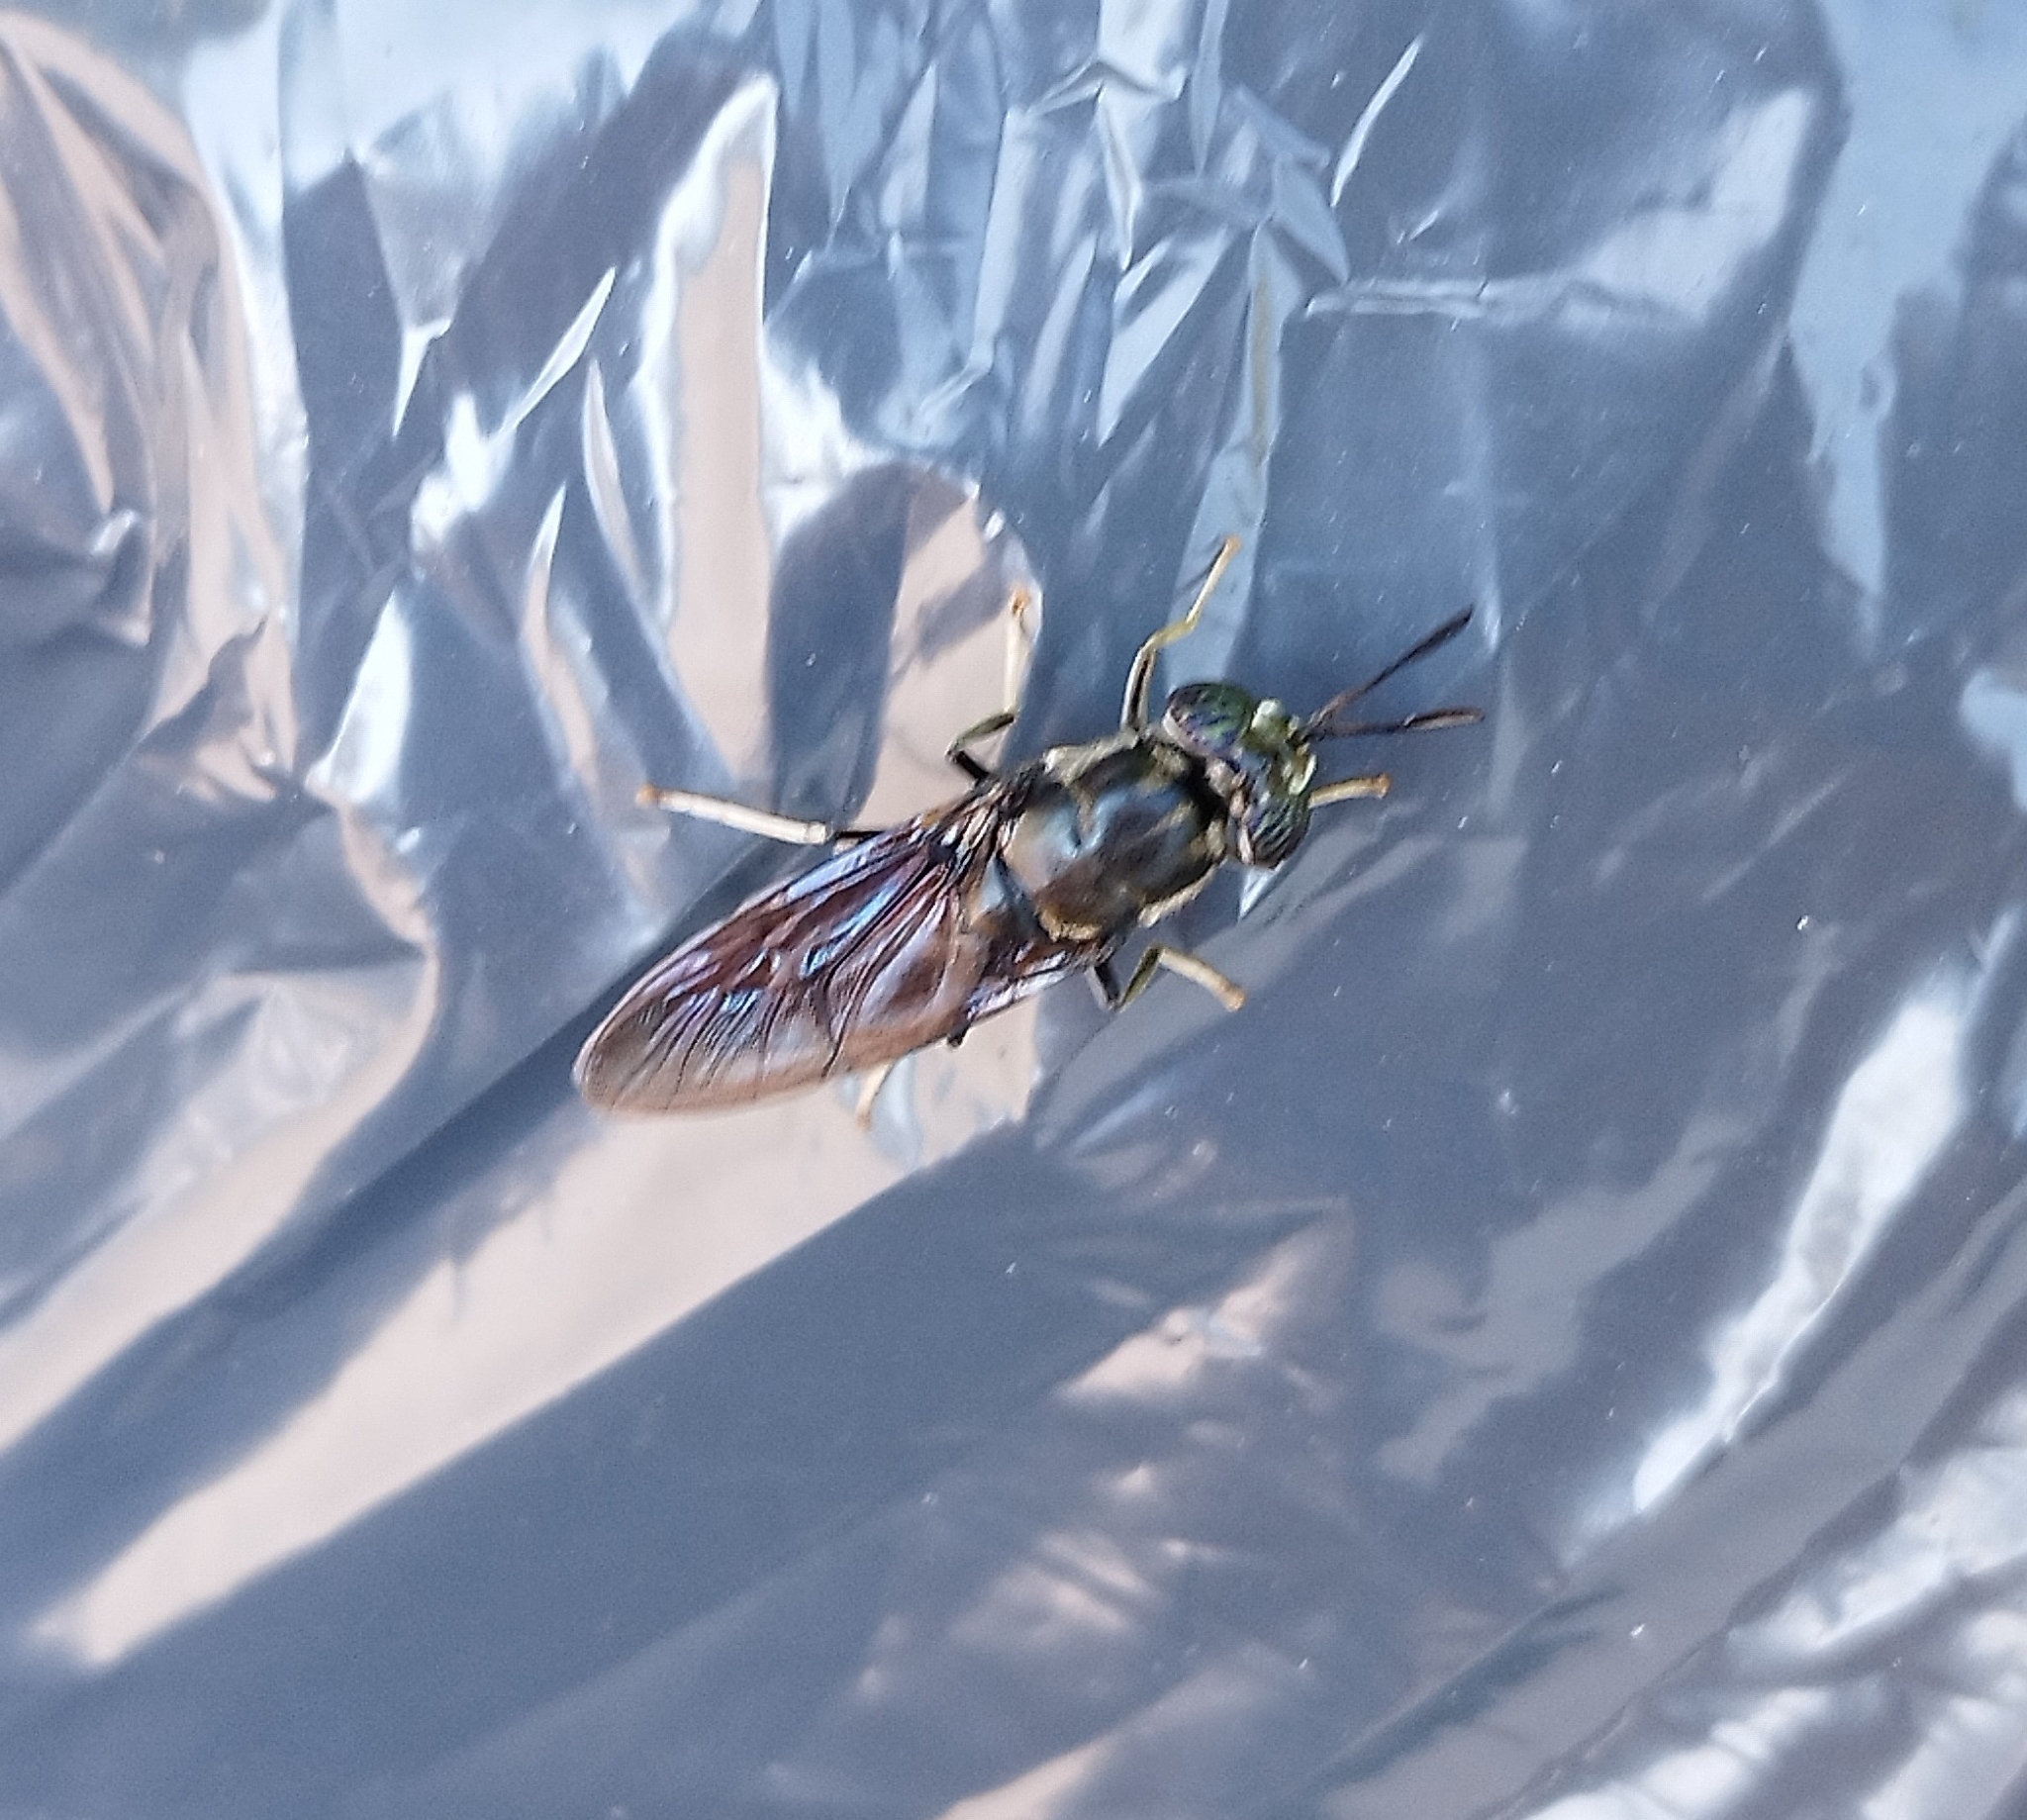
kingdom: Animalia
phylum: Arthropoda
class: Insecta
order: Diptera
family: Stratiomyidae
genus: Hermetia
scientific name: Hermetia illucens
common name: Black soldier fly
